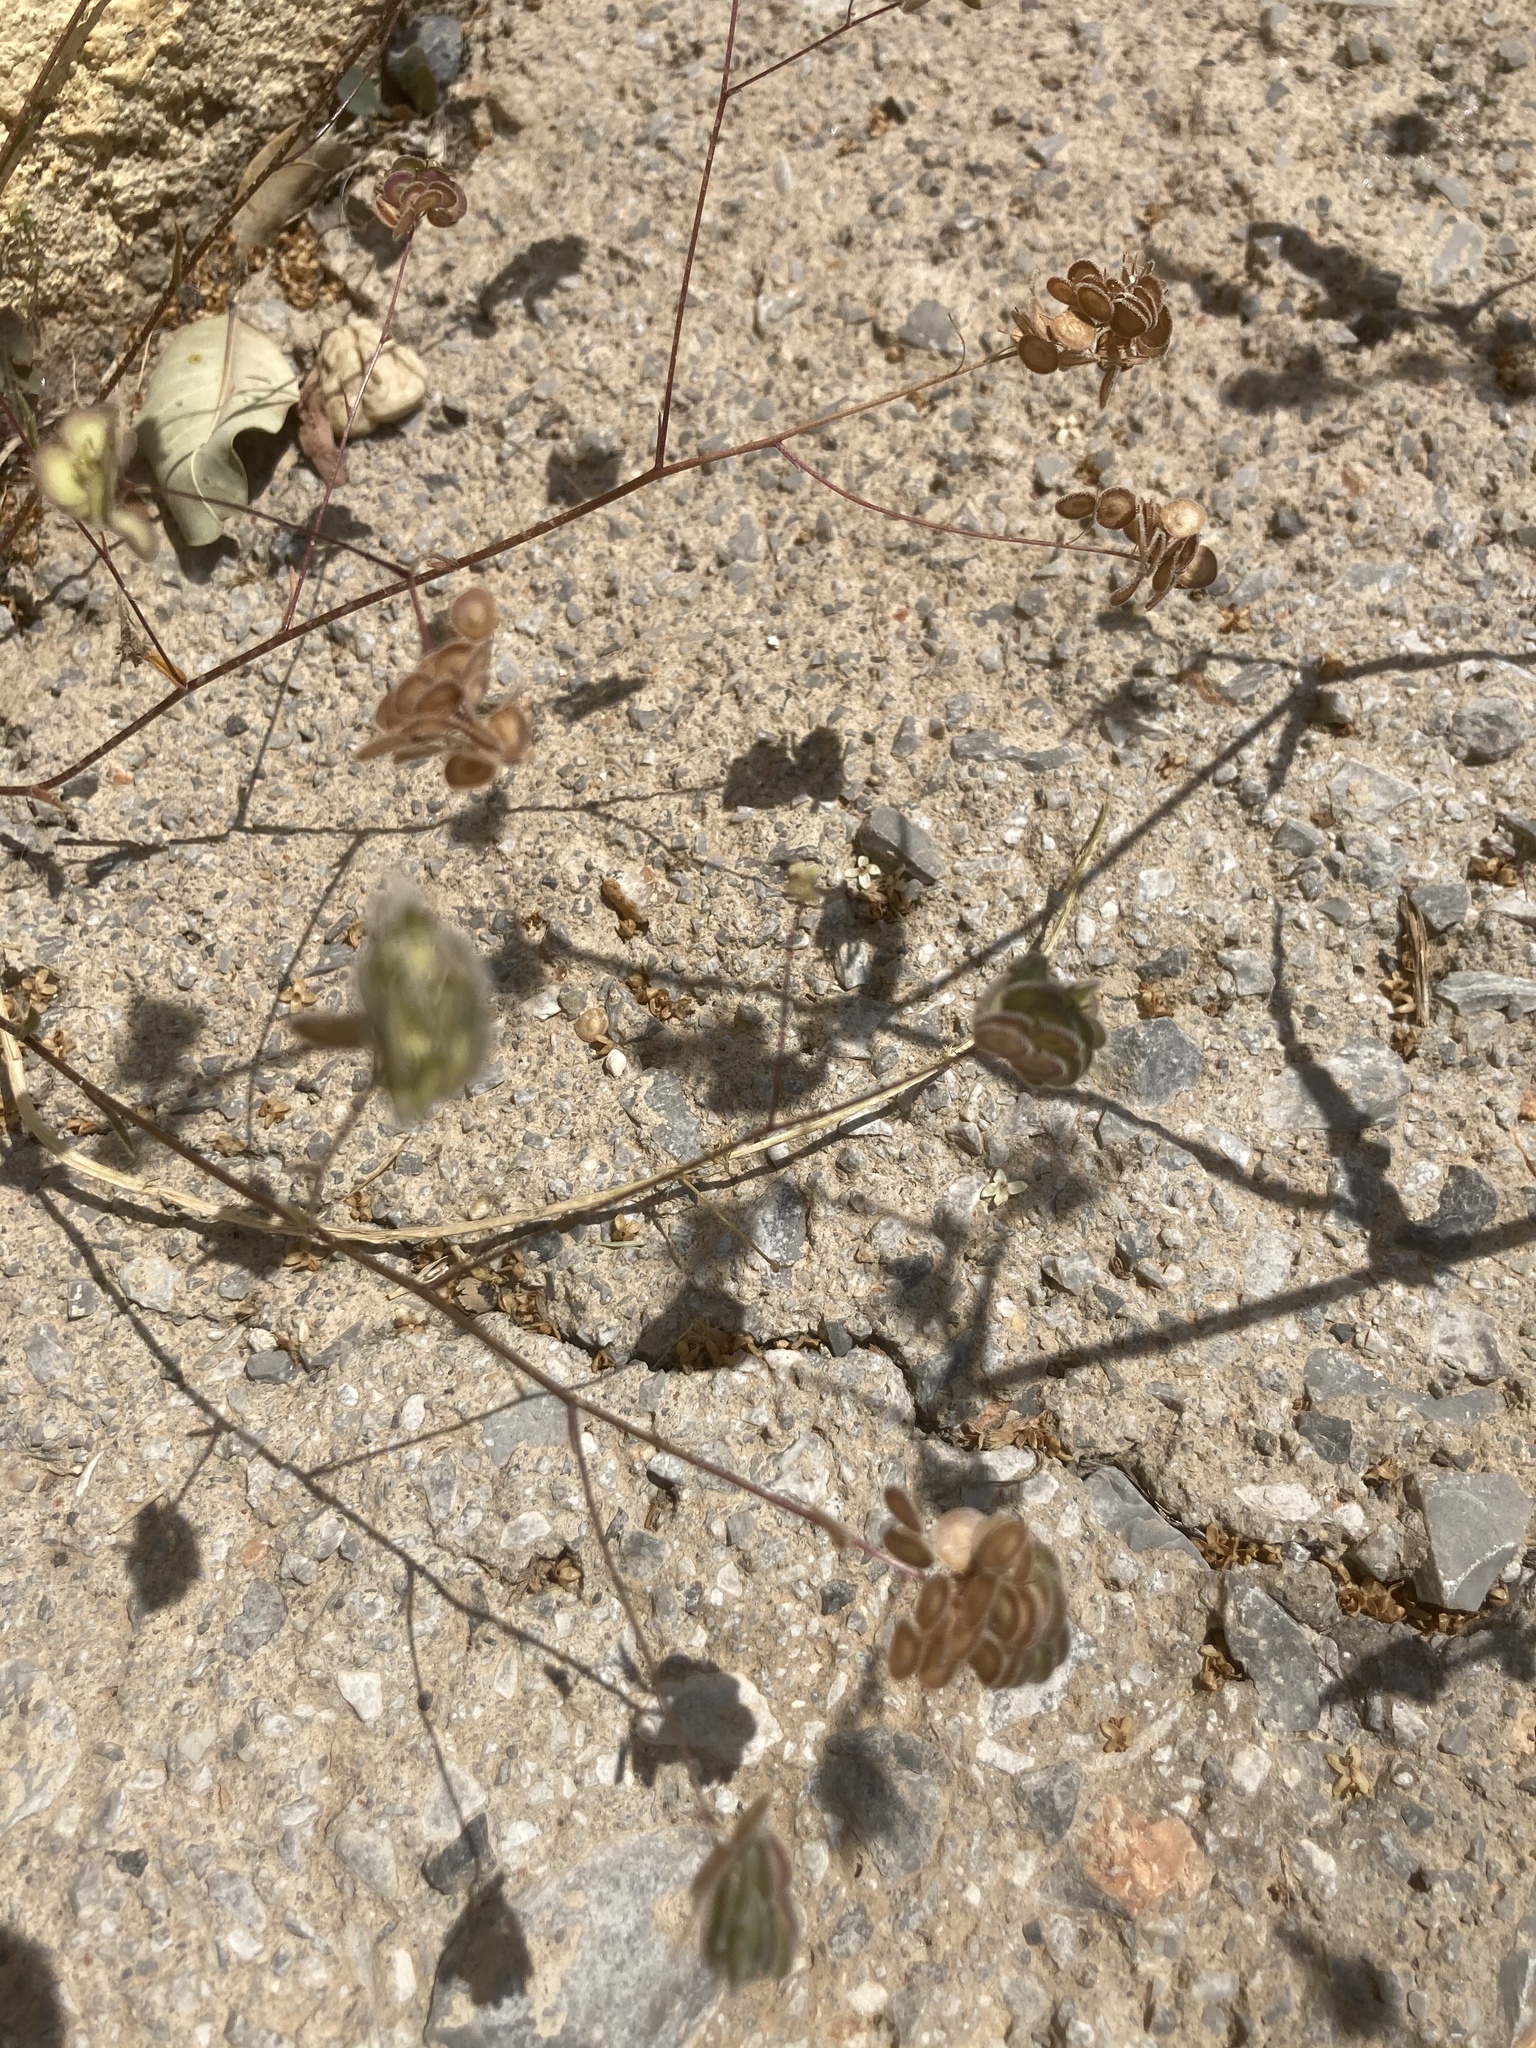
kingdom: Plantae
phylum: Tracheophyta
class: Magnoliopsida
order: Brassicales
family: Brassicaceae
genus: Biscutella
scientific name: Biscutella didyma
